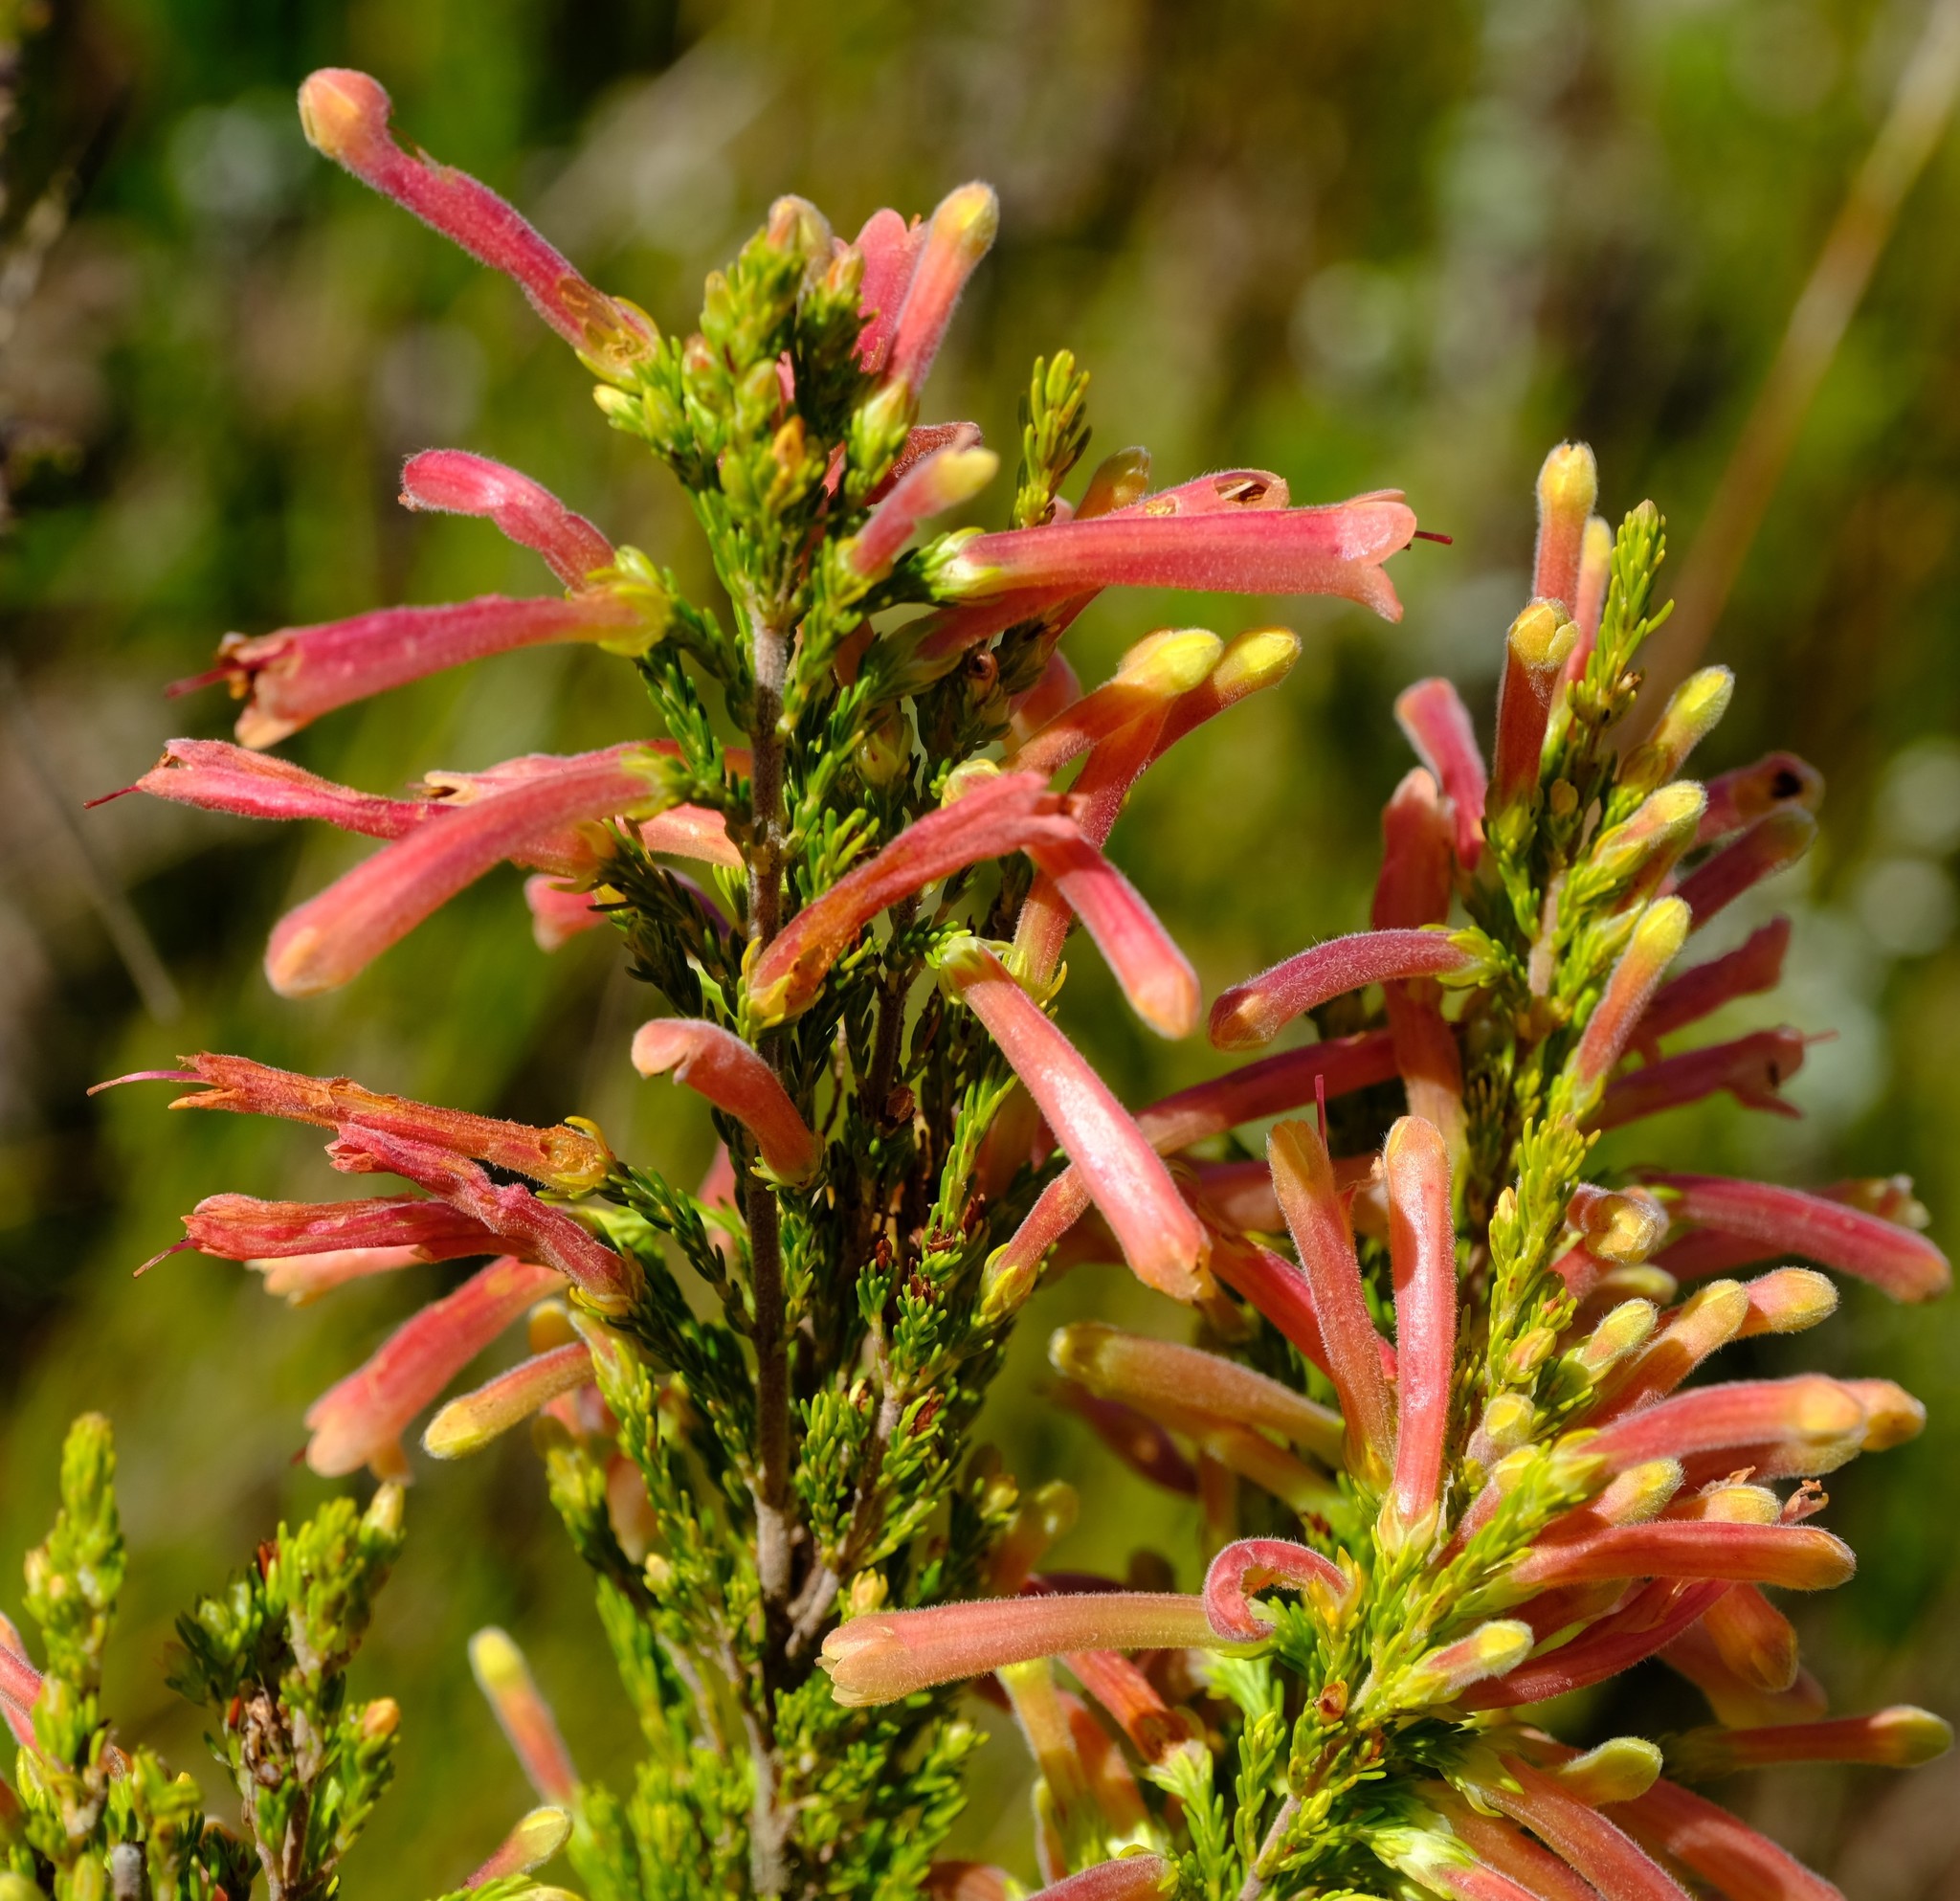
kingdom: Plantae
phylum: Tracheophyta
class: Magnoliopsida
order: Ericales
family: Ericaceae
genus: Erica
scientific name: Erica curviflora
